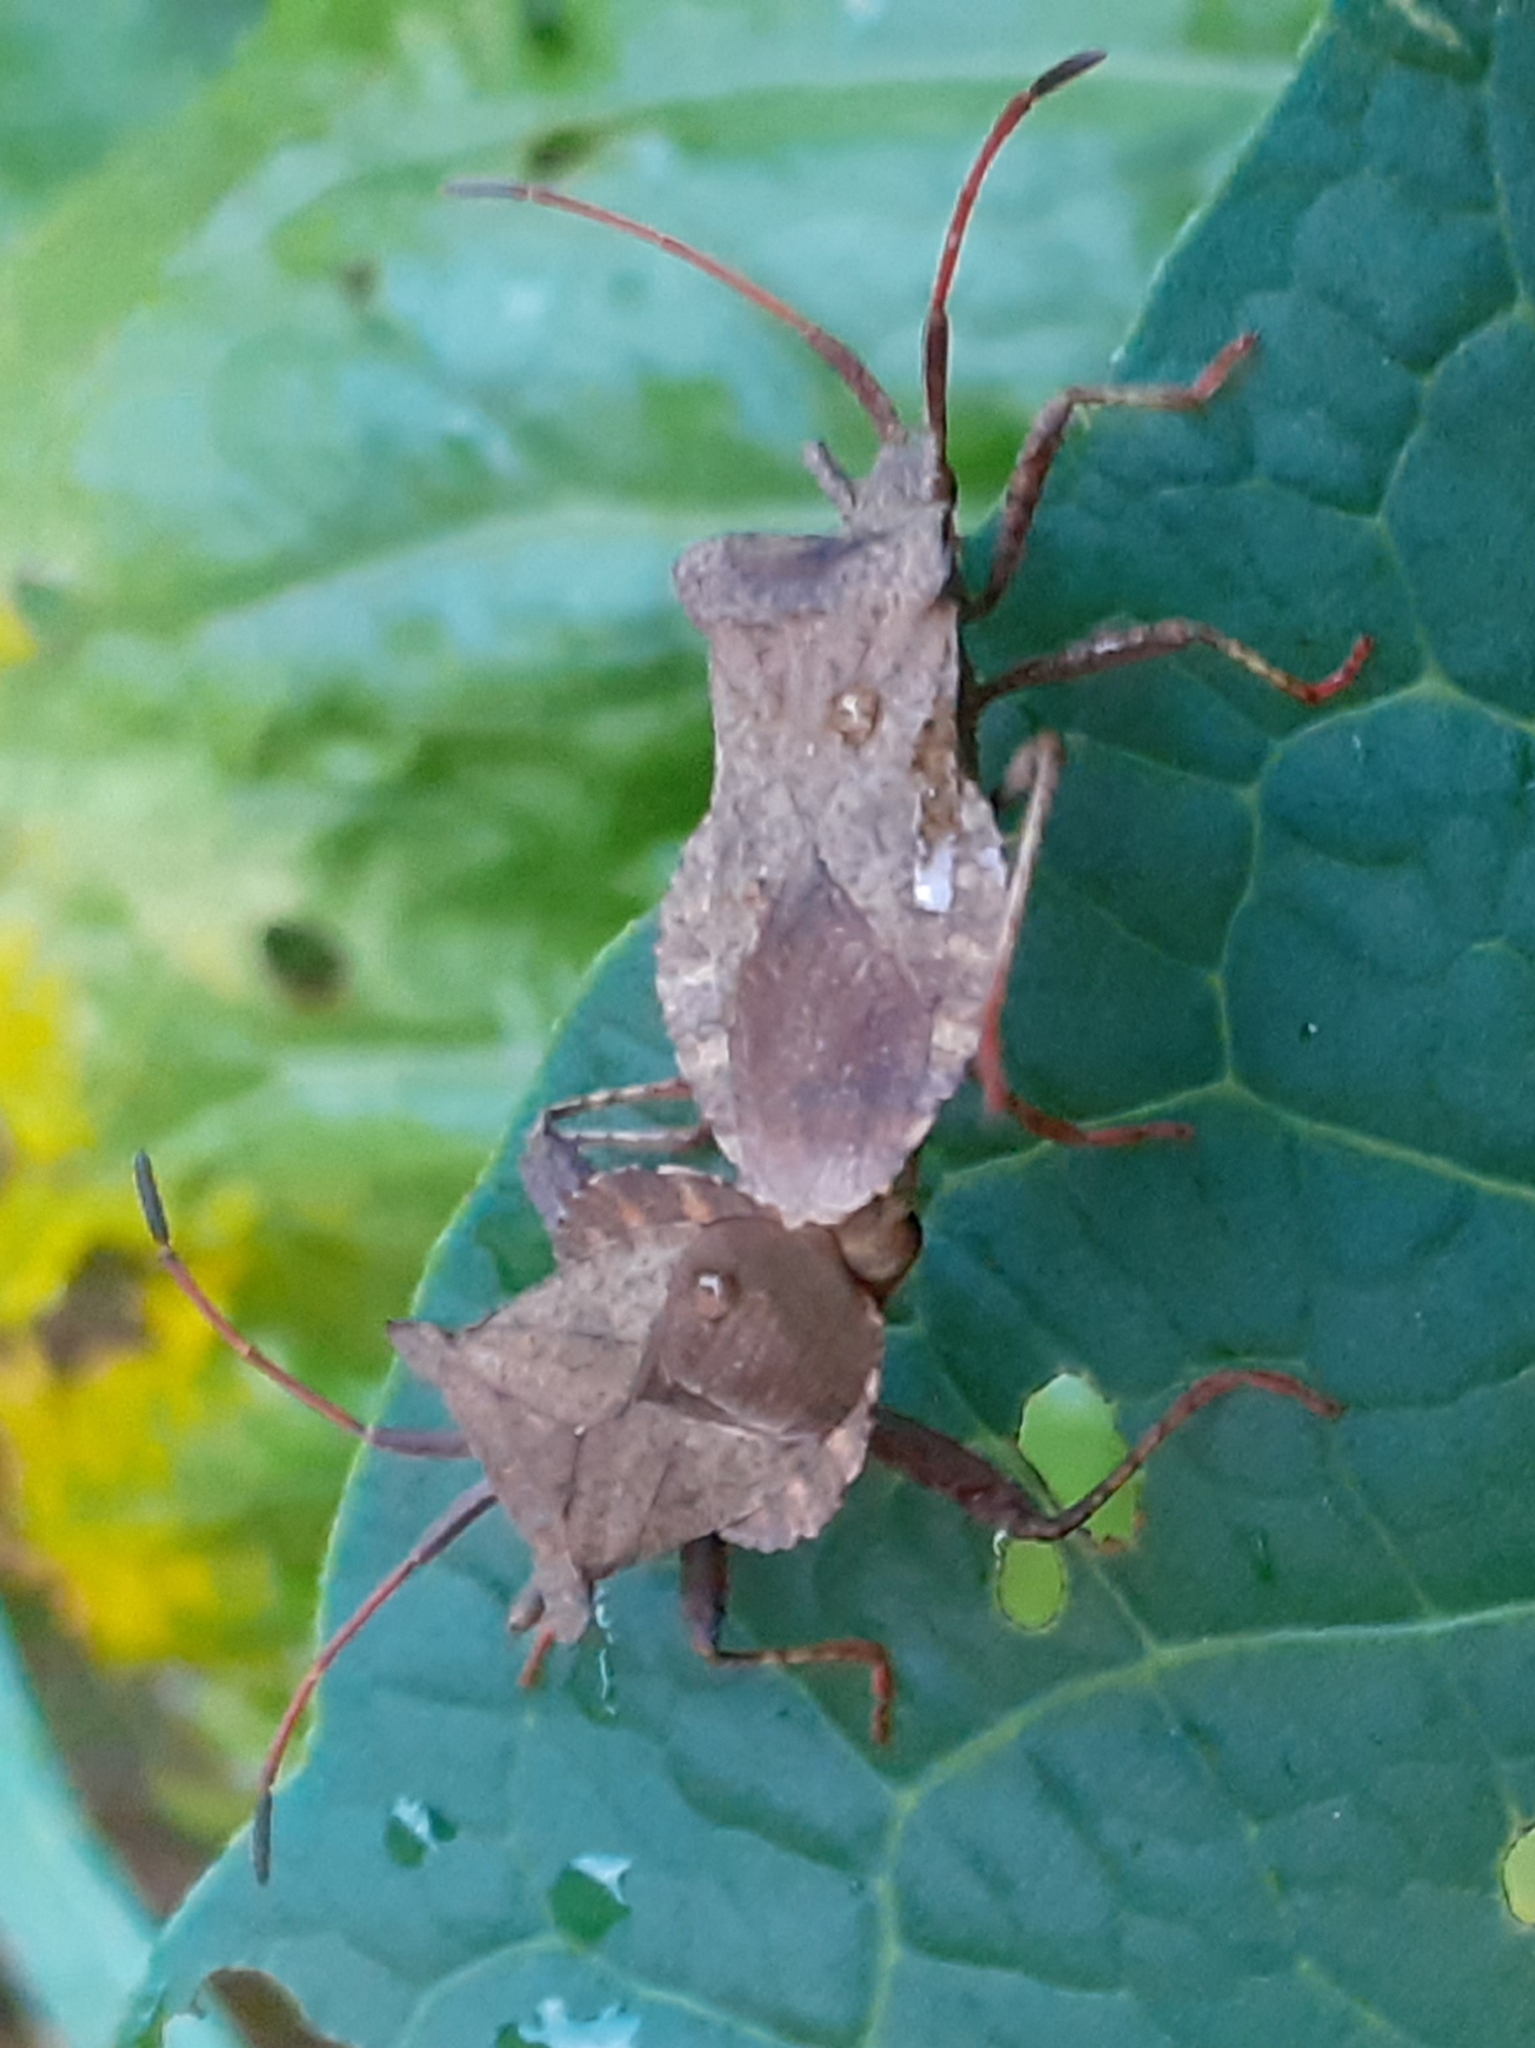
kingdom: Animalia
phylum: Arthropoda
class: Insecta
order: Hemiptera
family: Coreidae
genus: Coreus
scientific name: Coreus marginatus
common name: Dock bug
